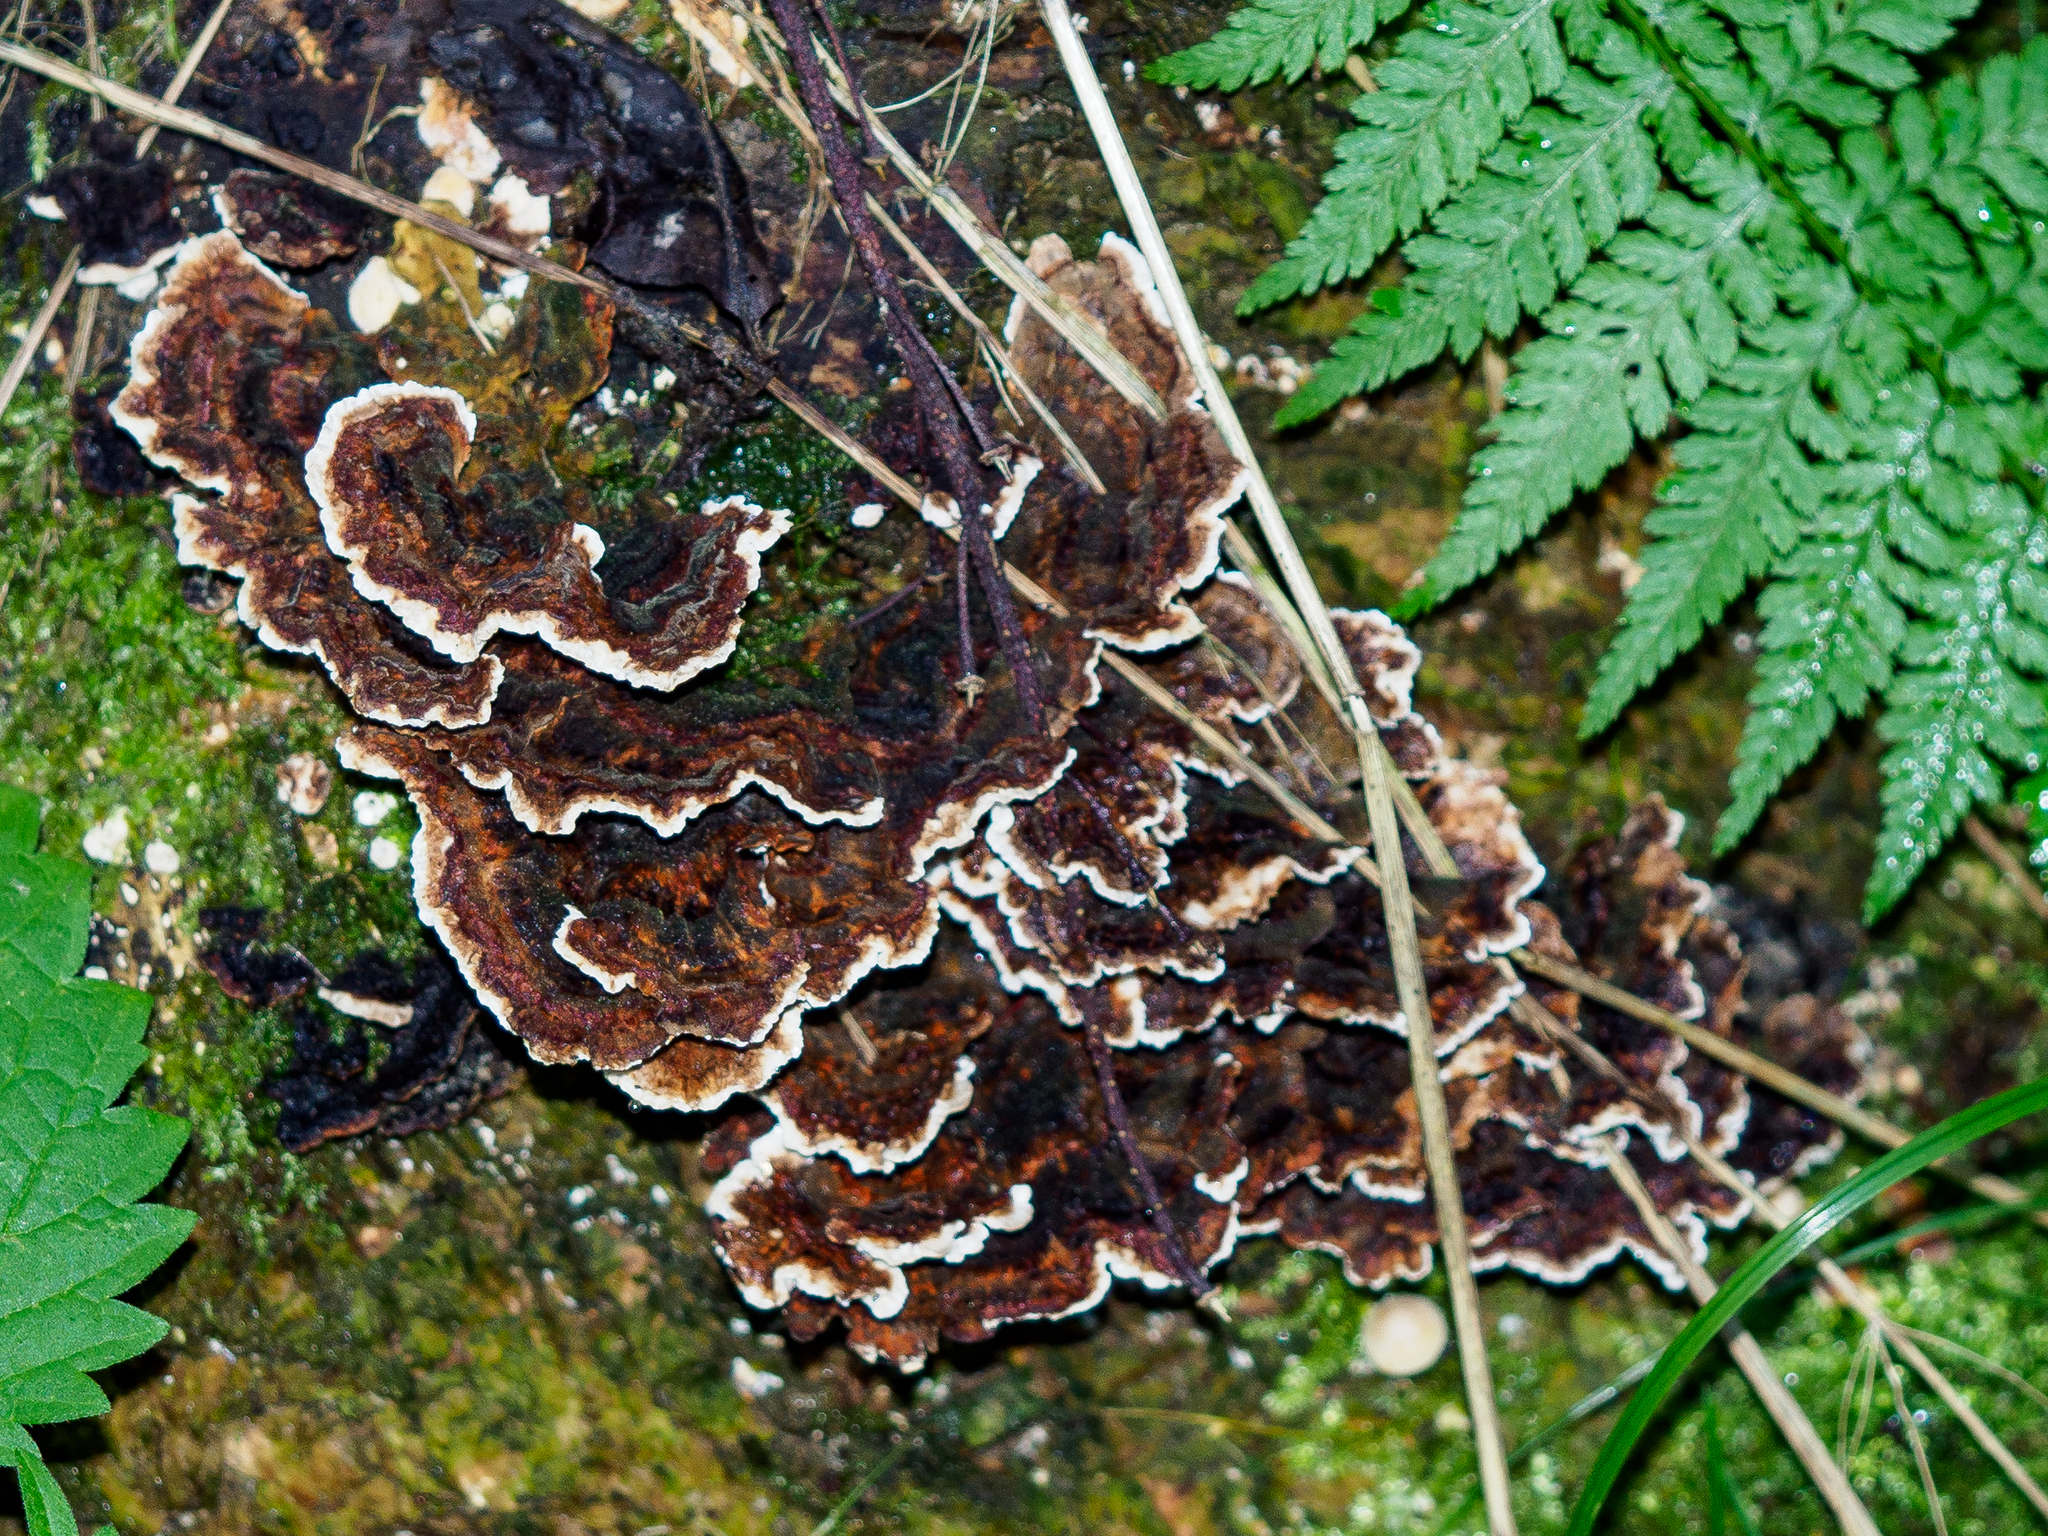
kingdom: Fungi
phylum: Basidiomycota
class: Agaricomycetes
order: Polyporales
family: Polyporaceae
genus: Trametes
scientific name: Trametes versicolor
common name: Turkeytail
